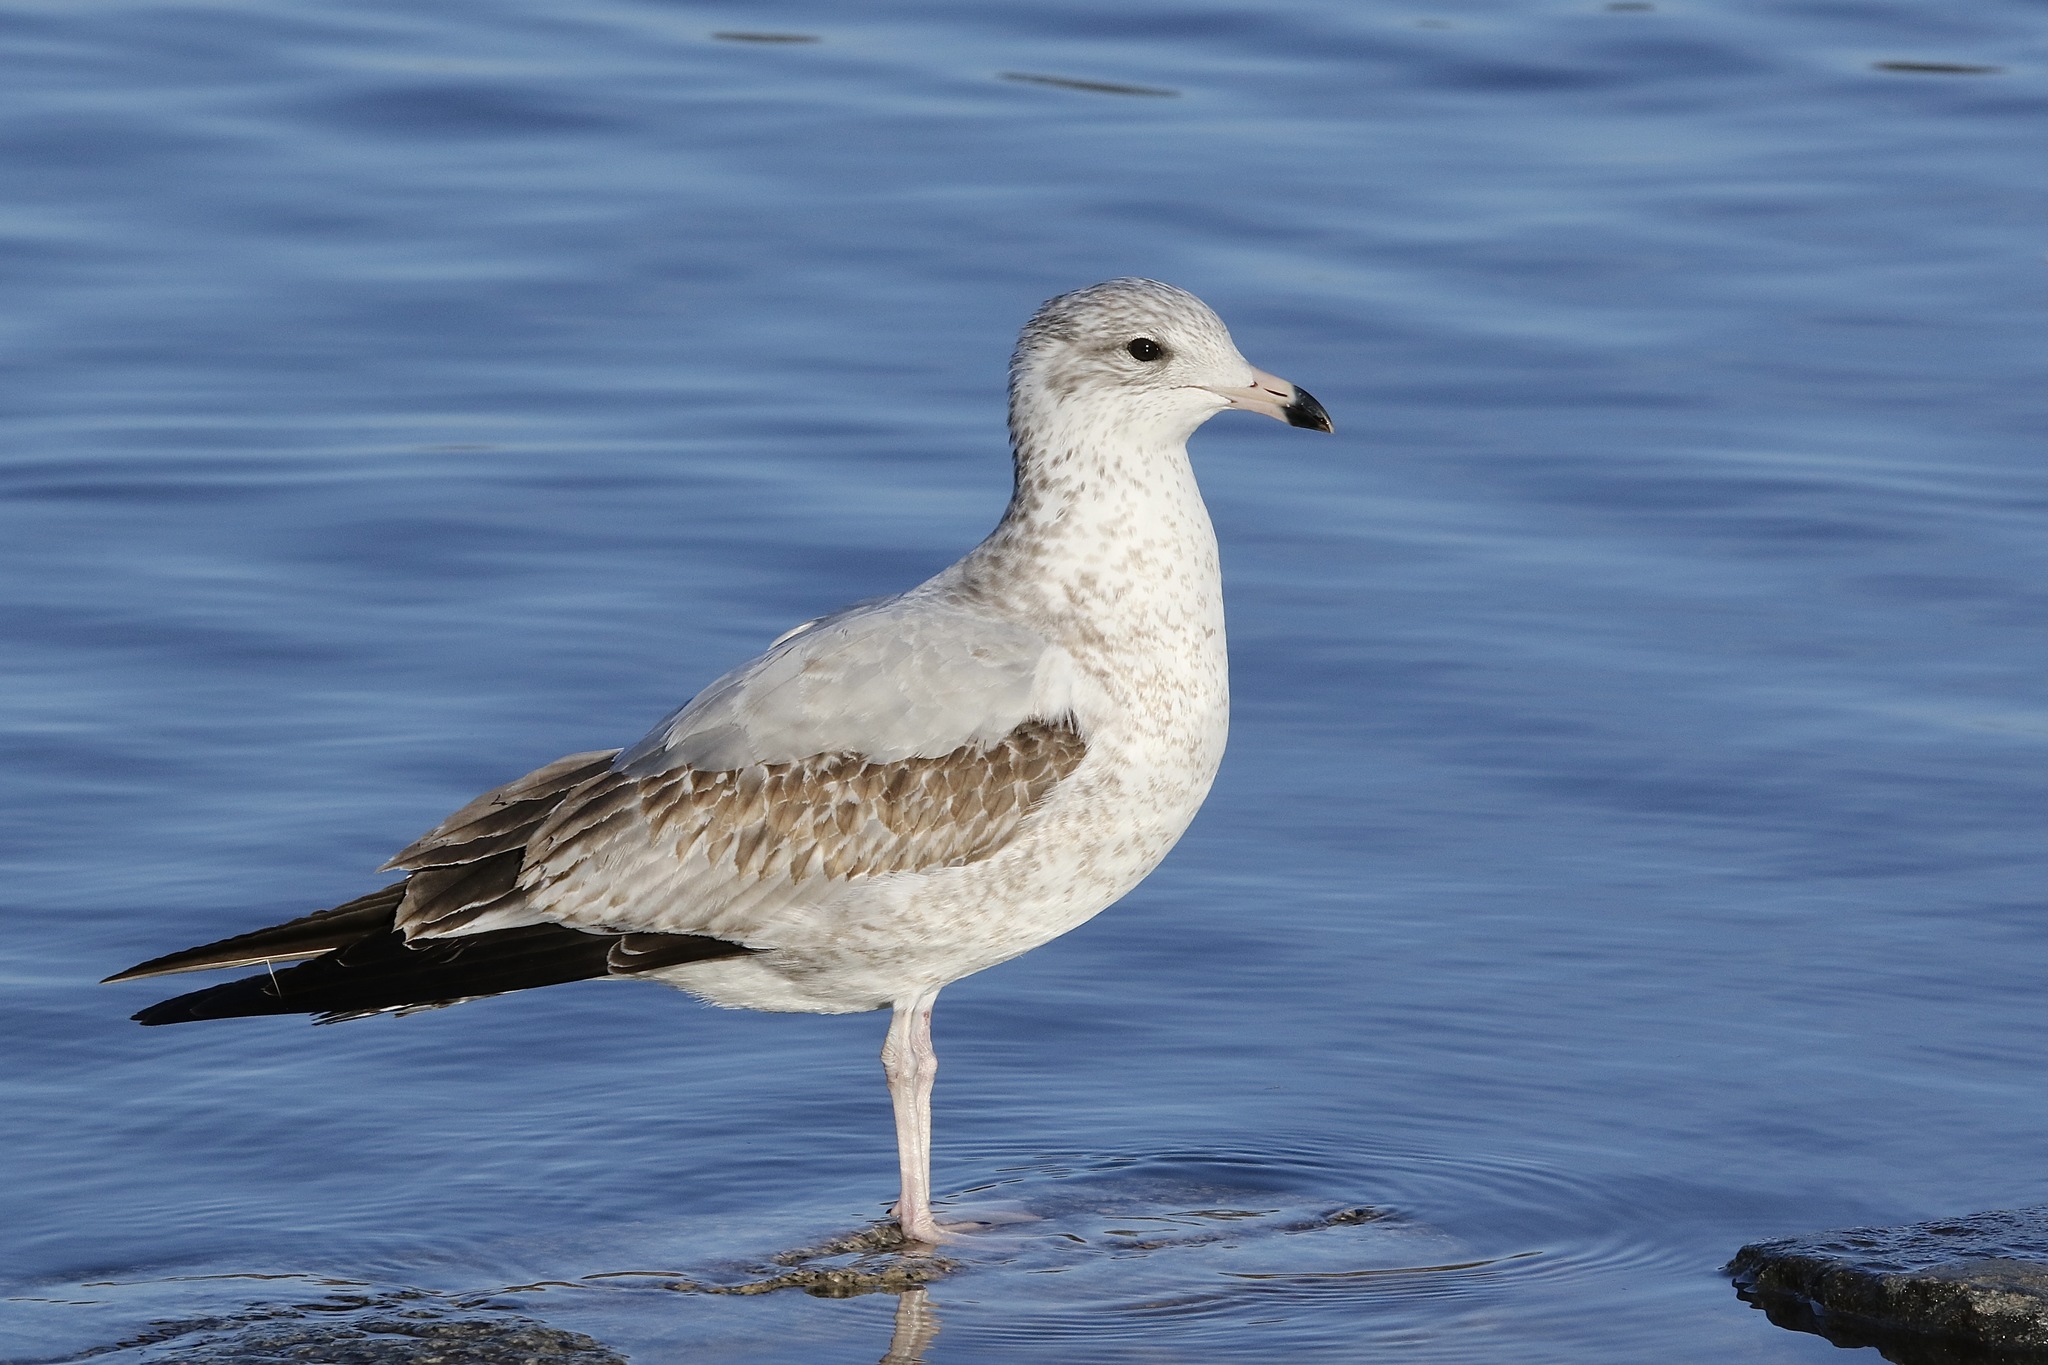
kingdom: Animalia
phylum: Chordata
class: Aves
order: Charadriiformes
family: Laridae
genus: Larus
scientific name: Larus delawarensis
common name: Ring-billed gull
